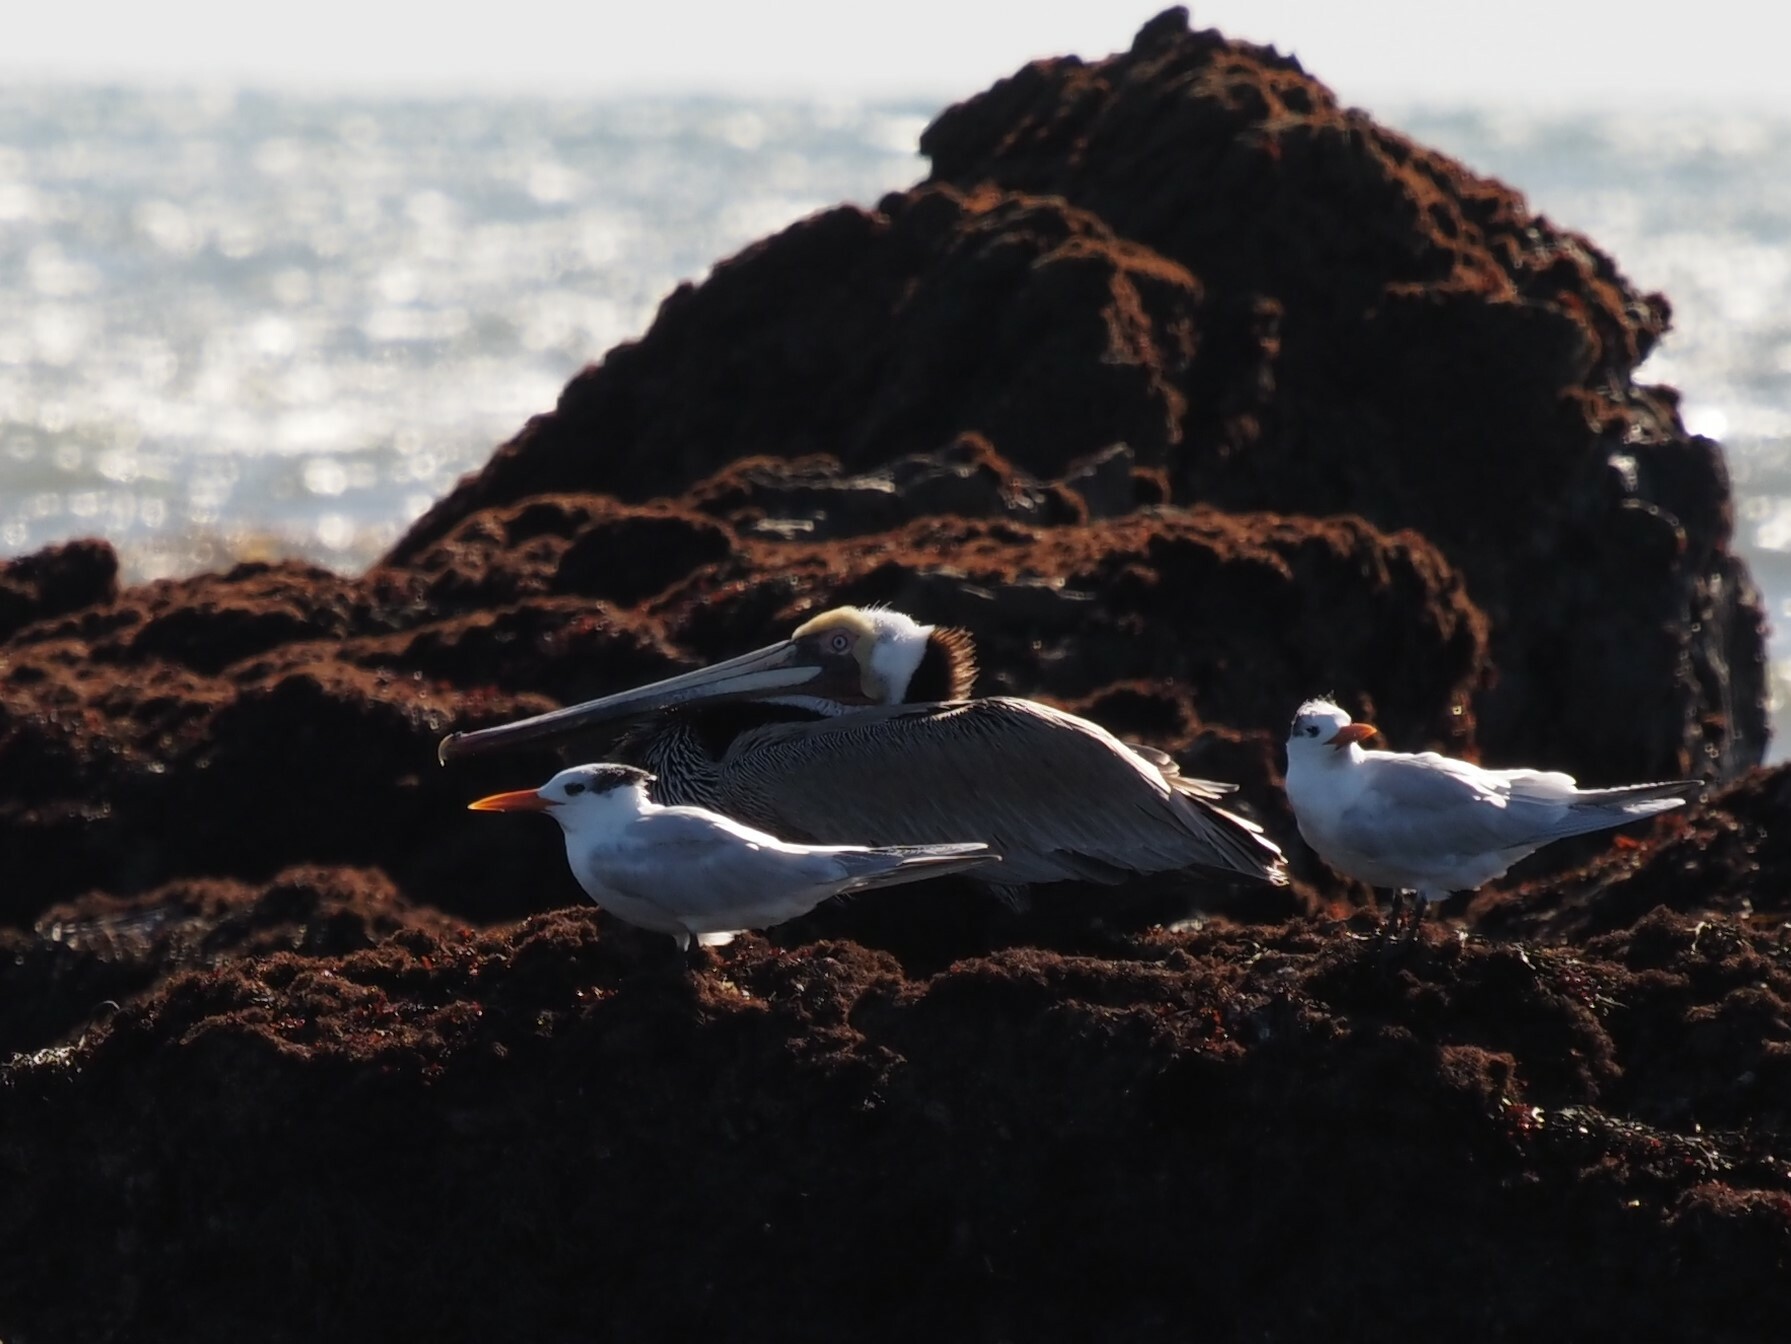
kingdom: Animalia
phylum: Chordata
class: Aves
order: Pelecaniformes
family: Pelecanidae
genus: Pelecanus
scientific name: Pelecanus occidentalis
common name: Brown pelican
